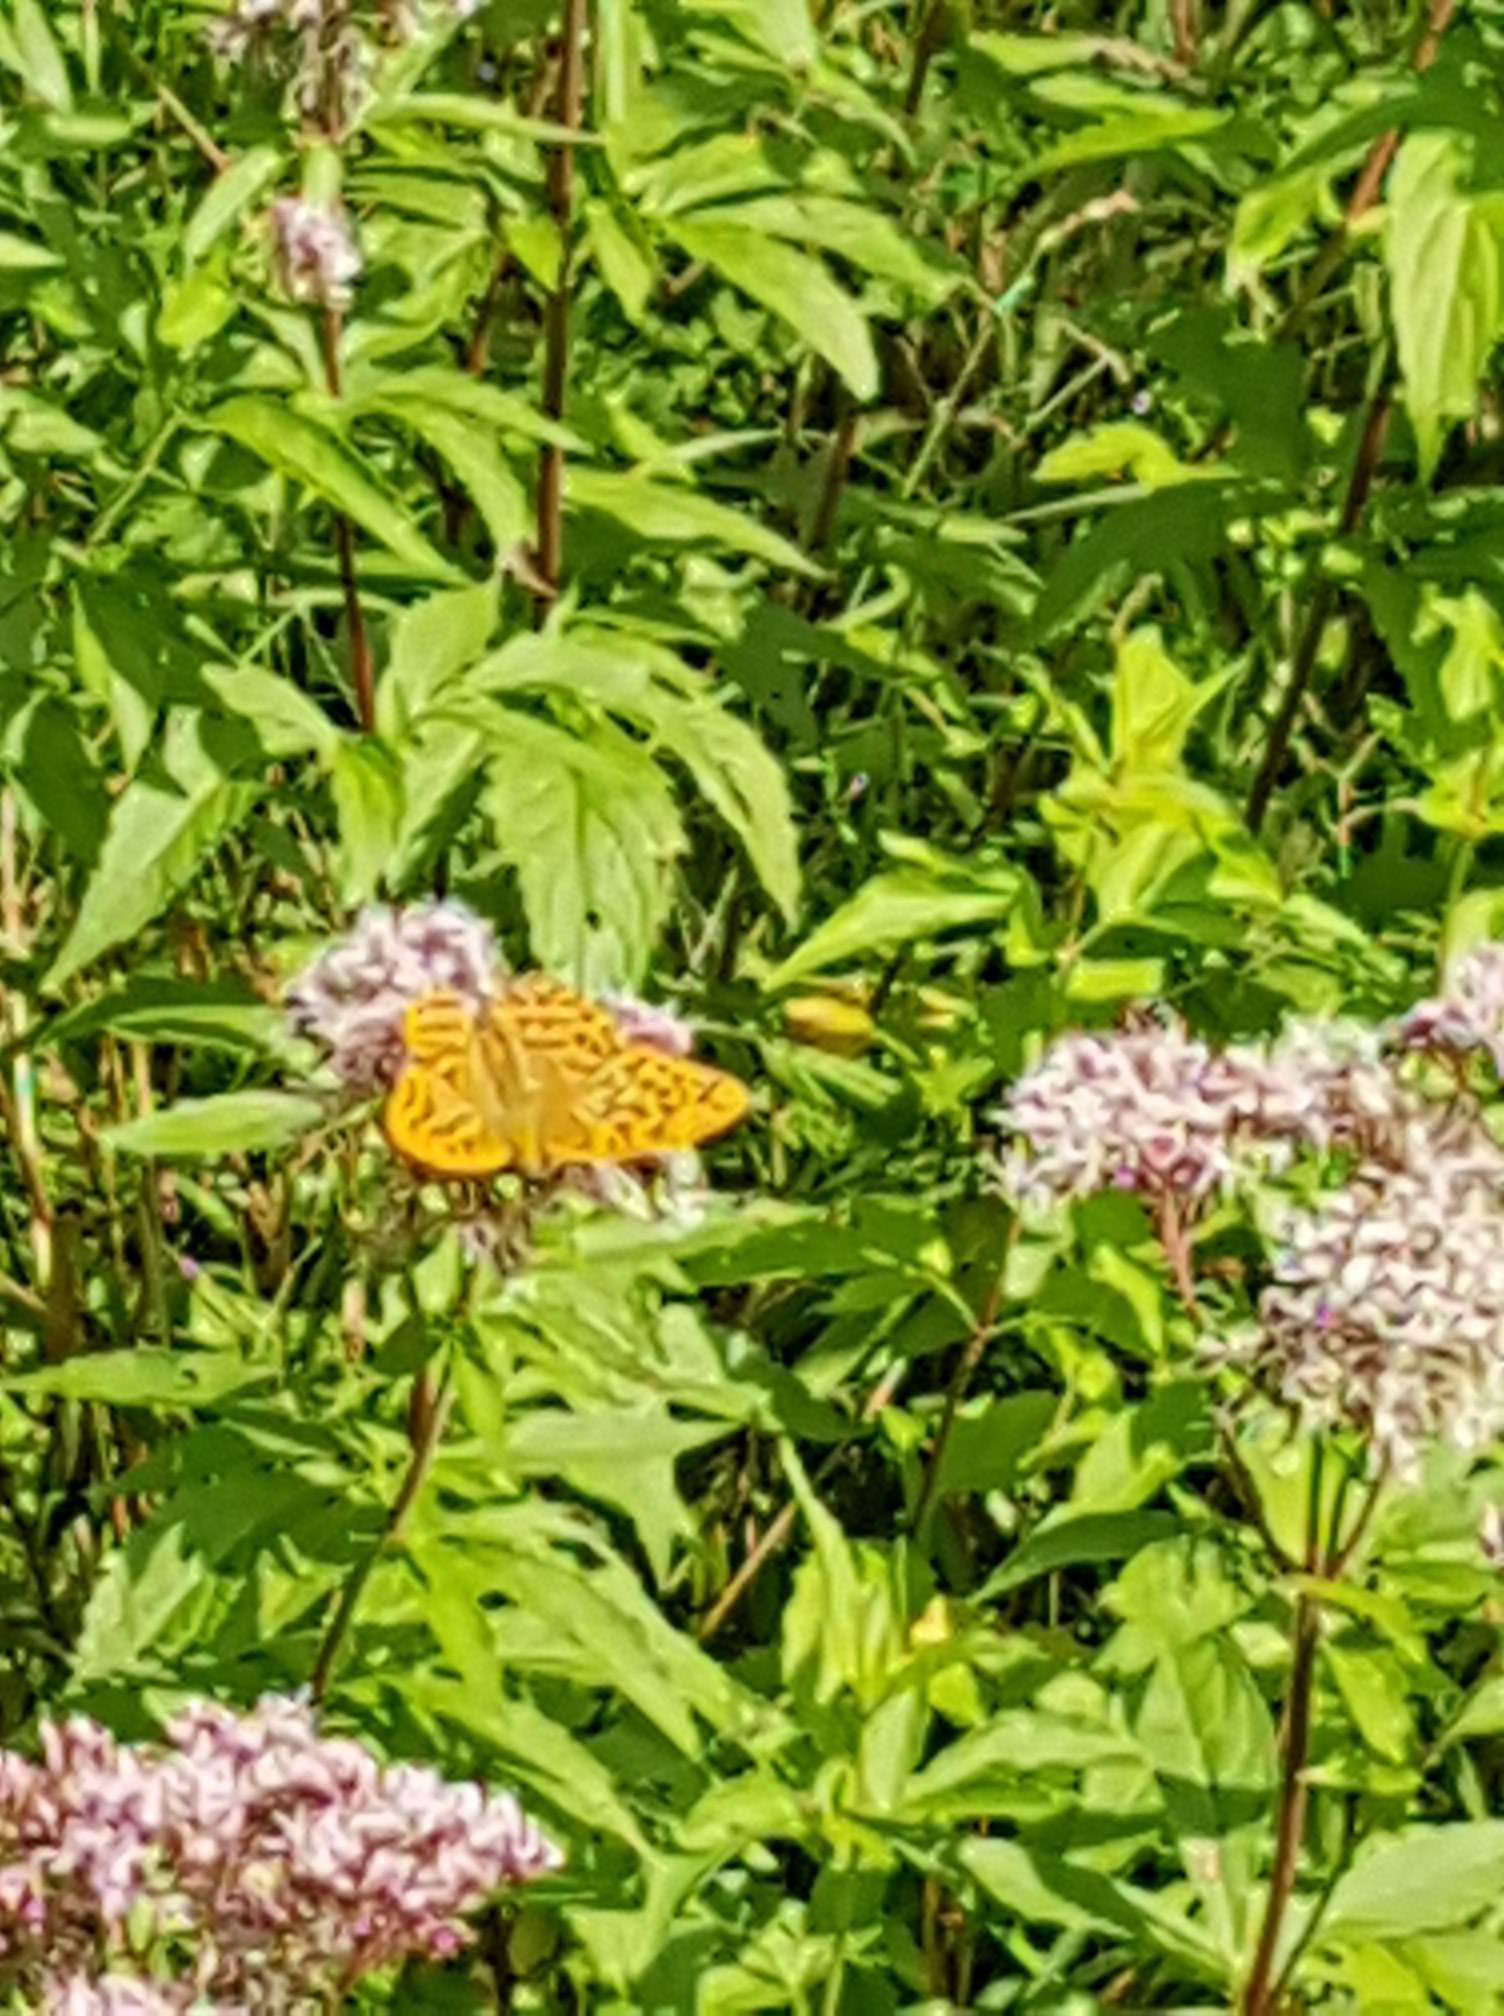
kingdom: Animalia
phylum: Arthropoda
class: Insecta
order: Lepidoptera
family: Nymphalidae
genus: Argynnis
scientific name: Argynnis paphia
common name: Silver-washed fritillary
